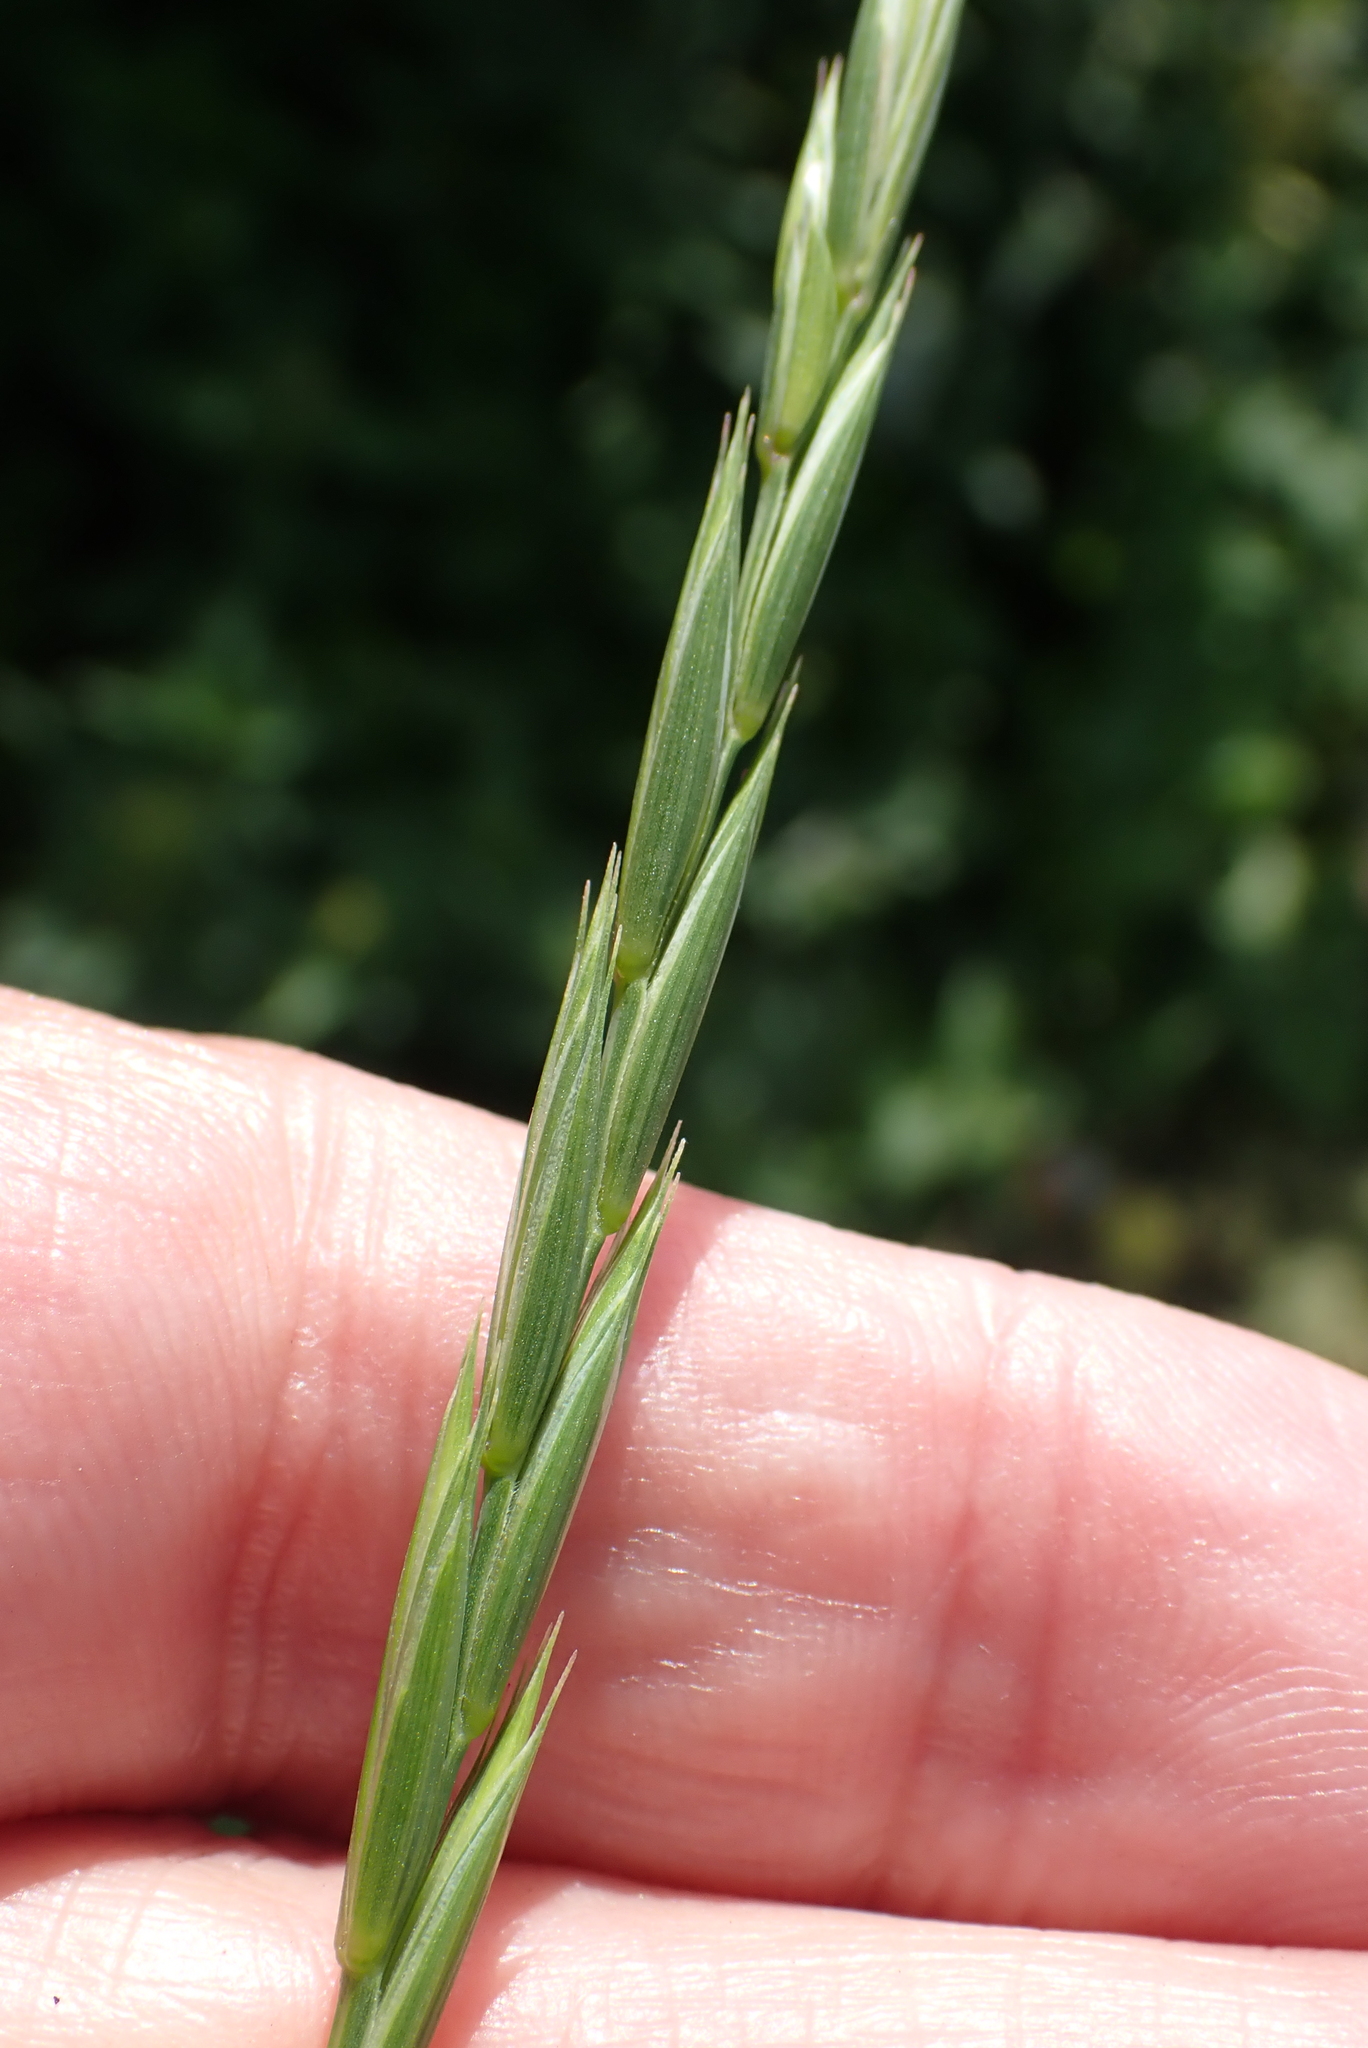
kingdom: Plantae
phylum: Tracheophyta
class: Liliopsida
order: Poales
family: Poaceae
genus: Elymus
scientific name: Elymus repens
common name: Quackgrass
